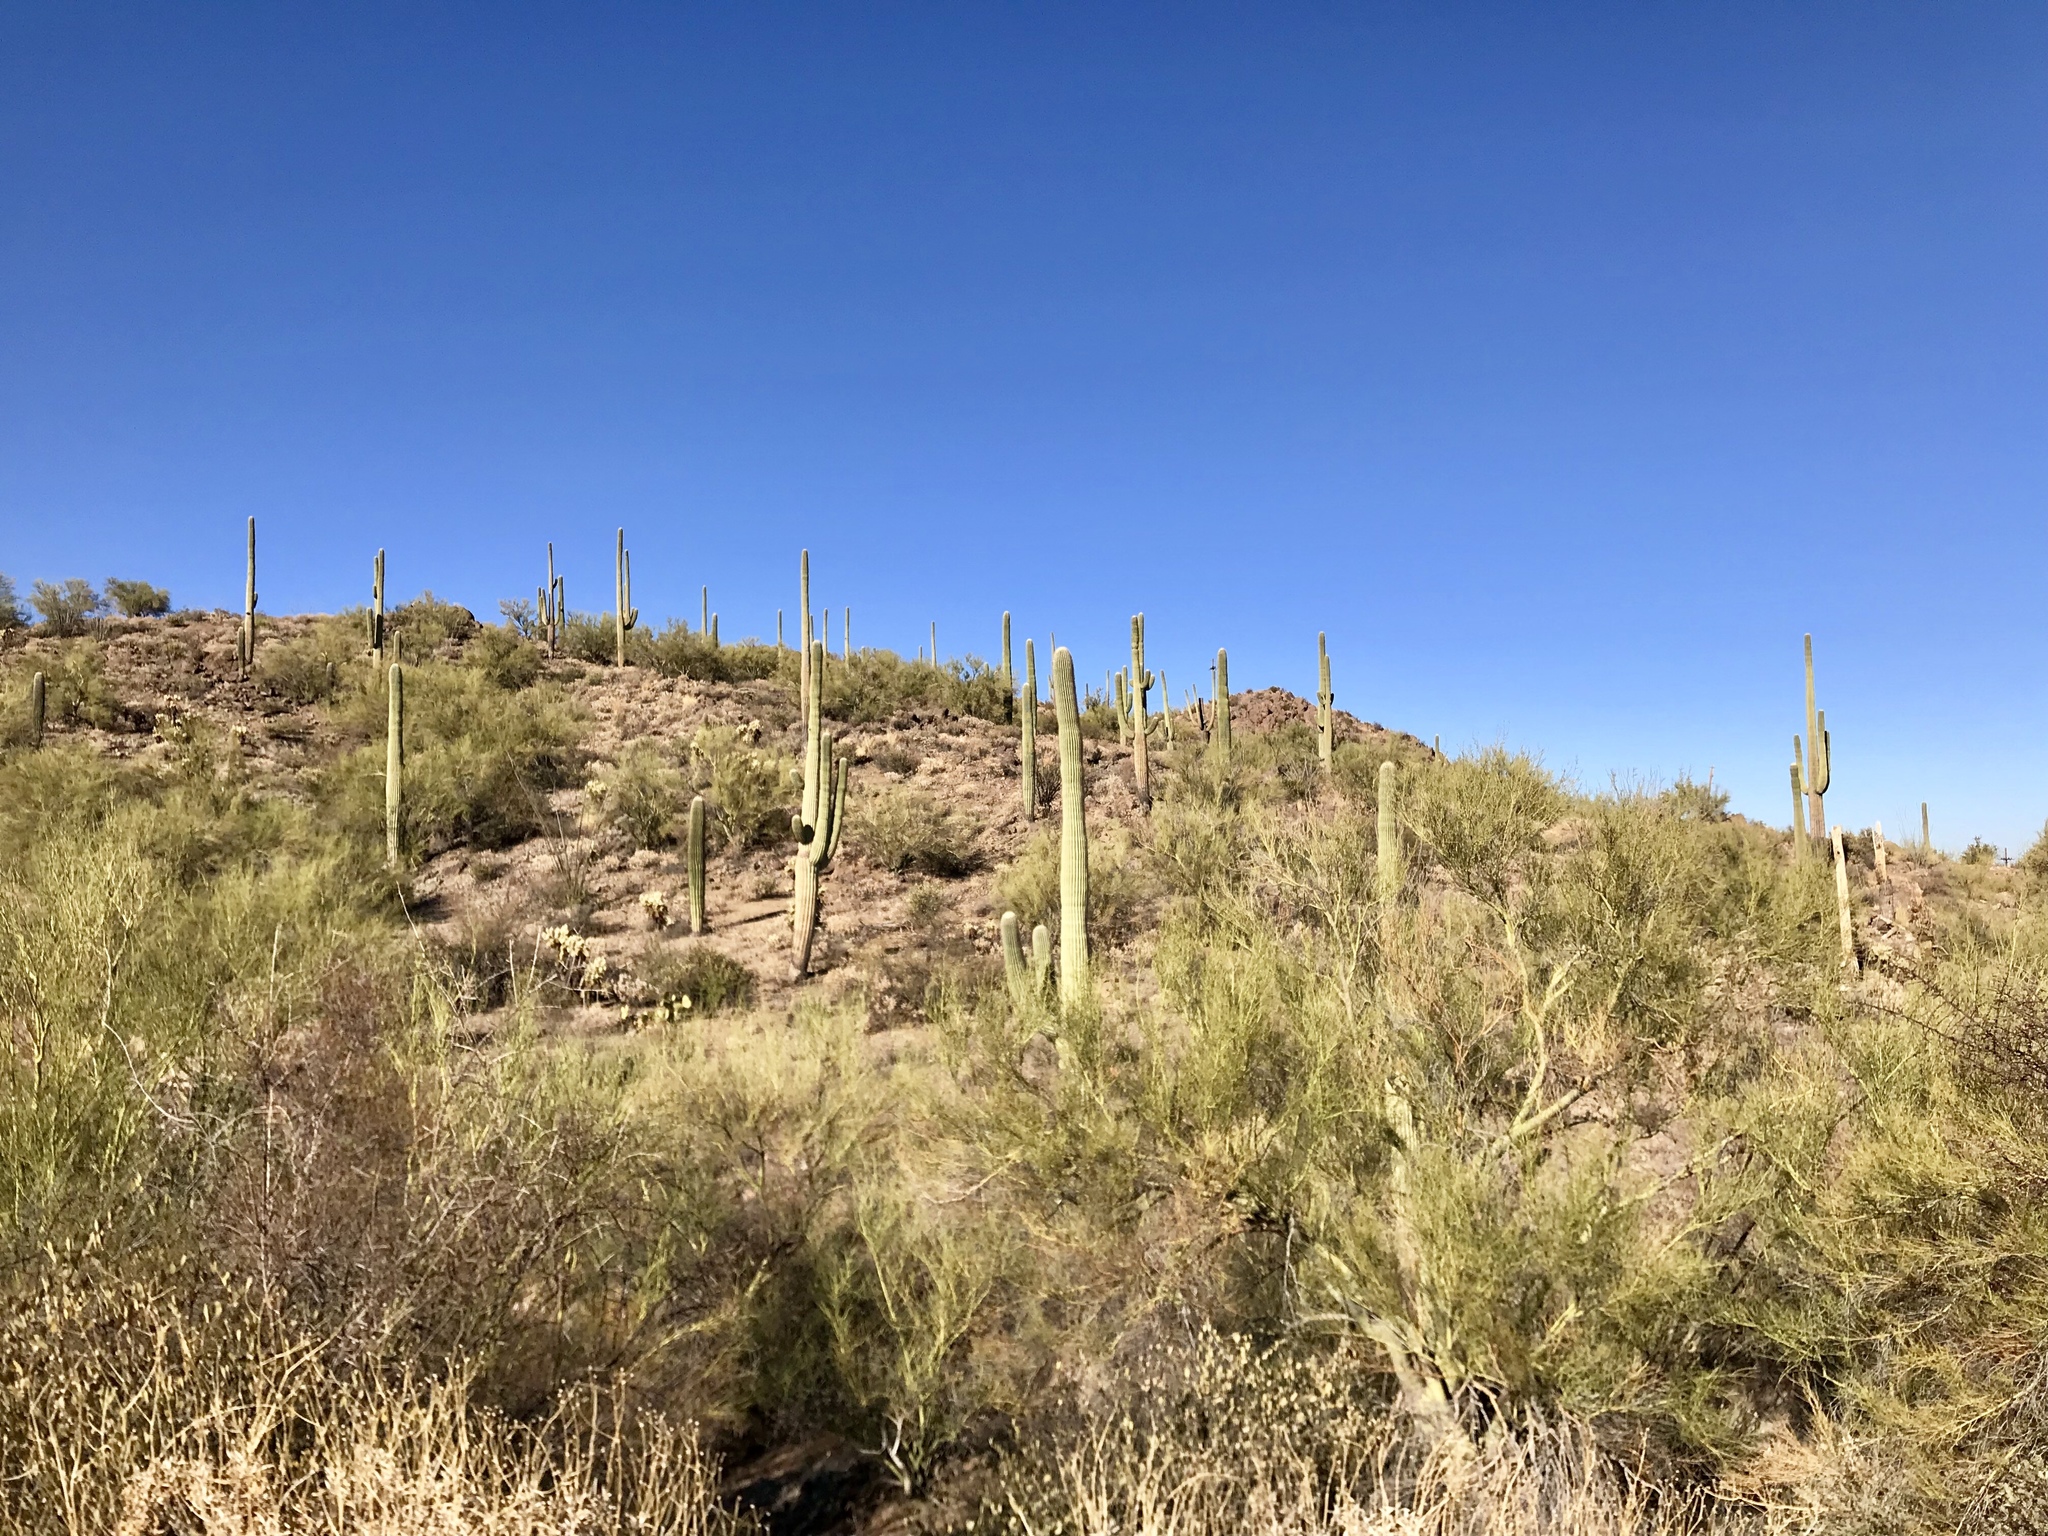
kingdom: Plantae
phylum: Tracheophyta
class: Magnoliopsida
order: Caryophyllales
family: Cactaceae
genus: Carnegiea
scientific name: Carnegiea gigantea
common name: Saguaro
